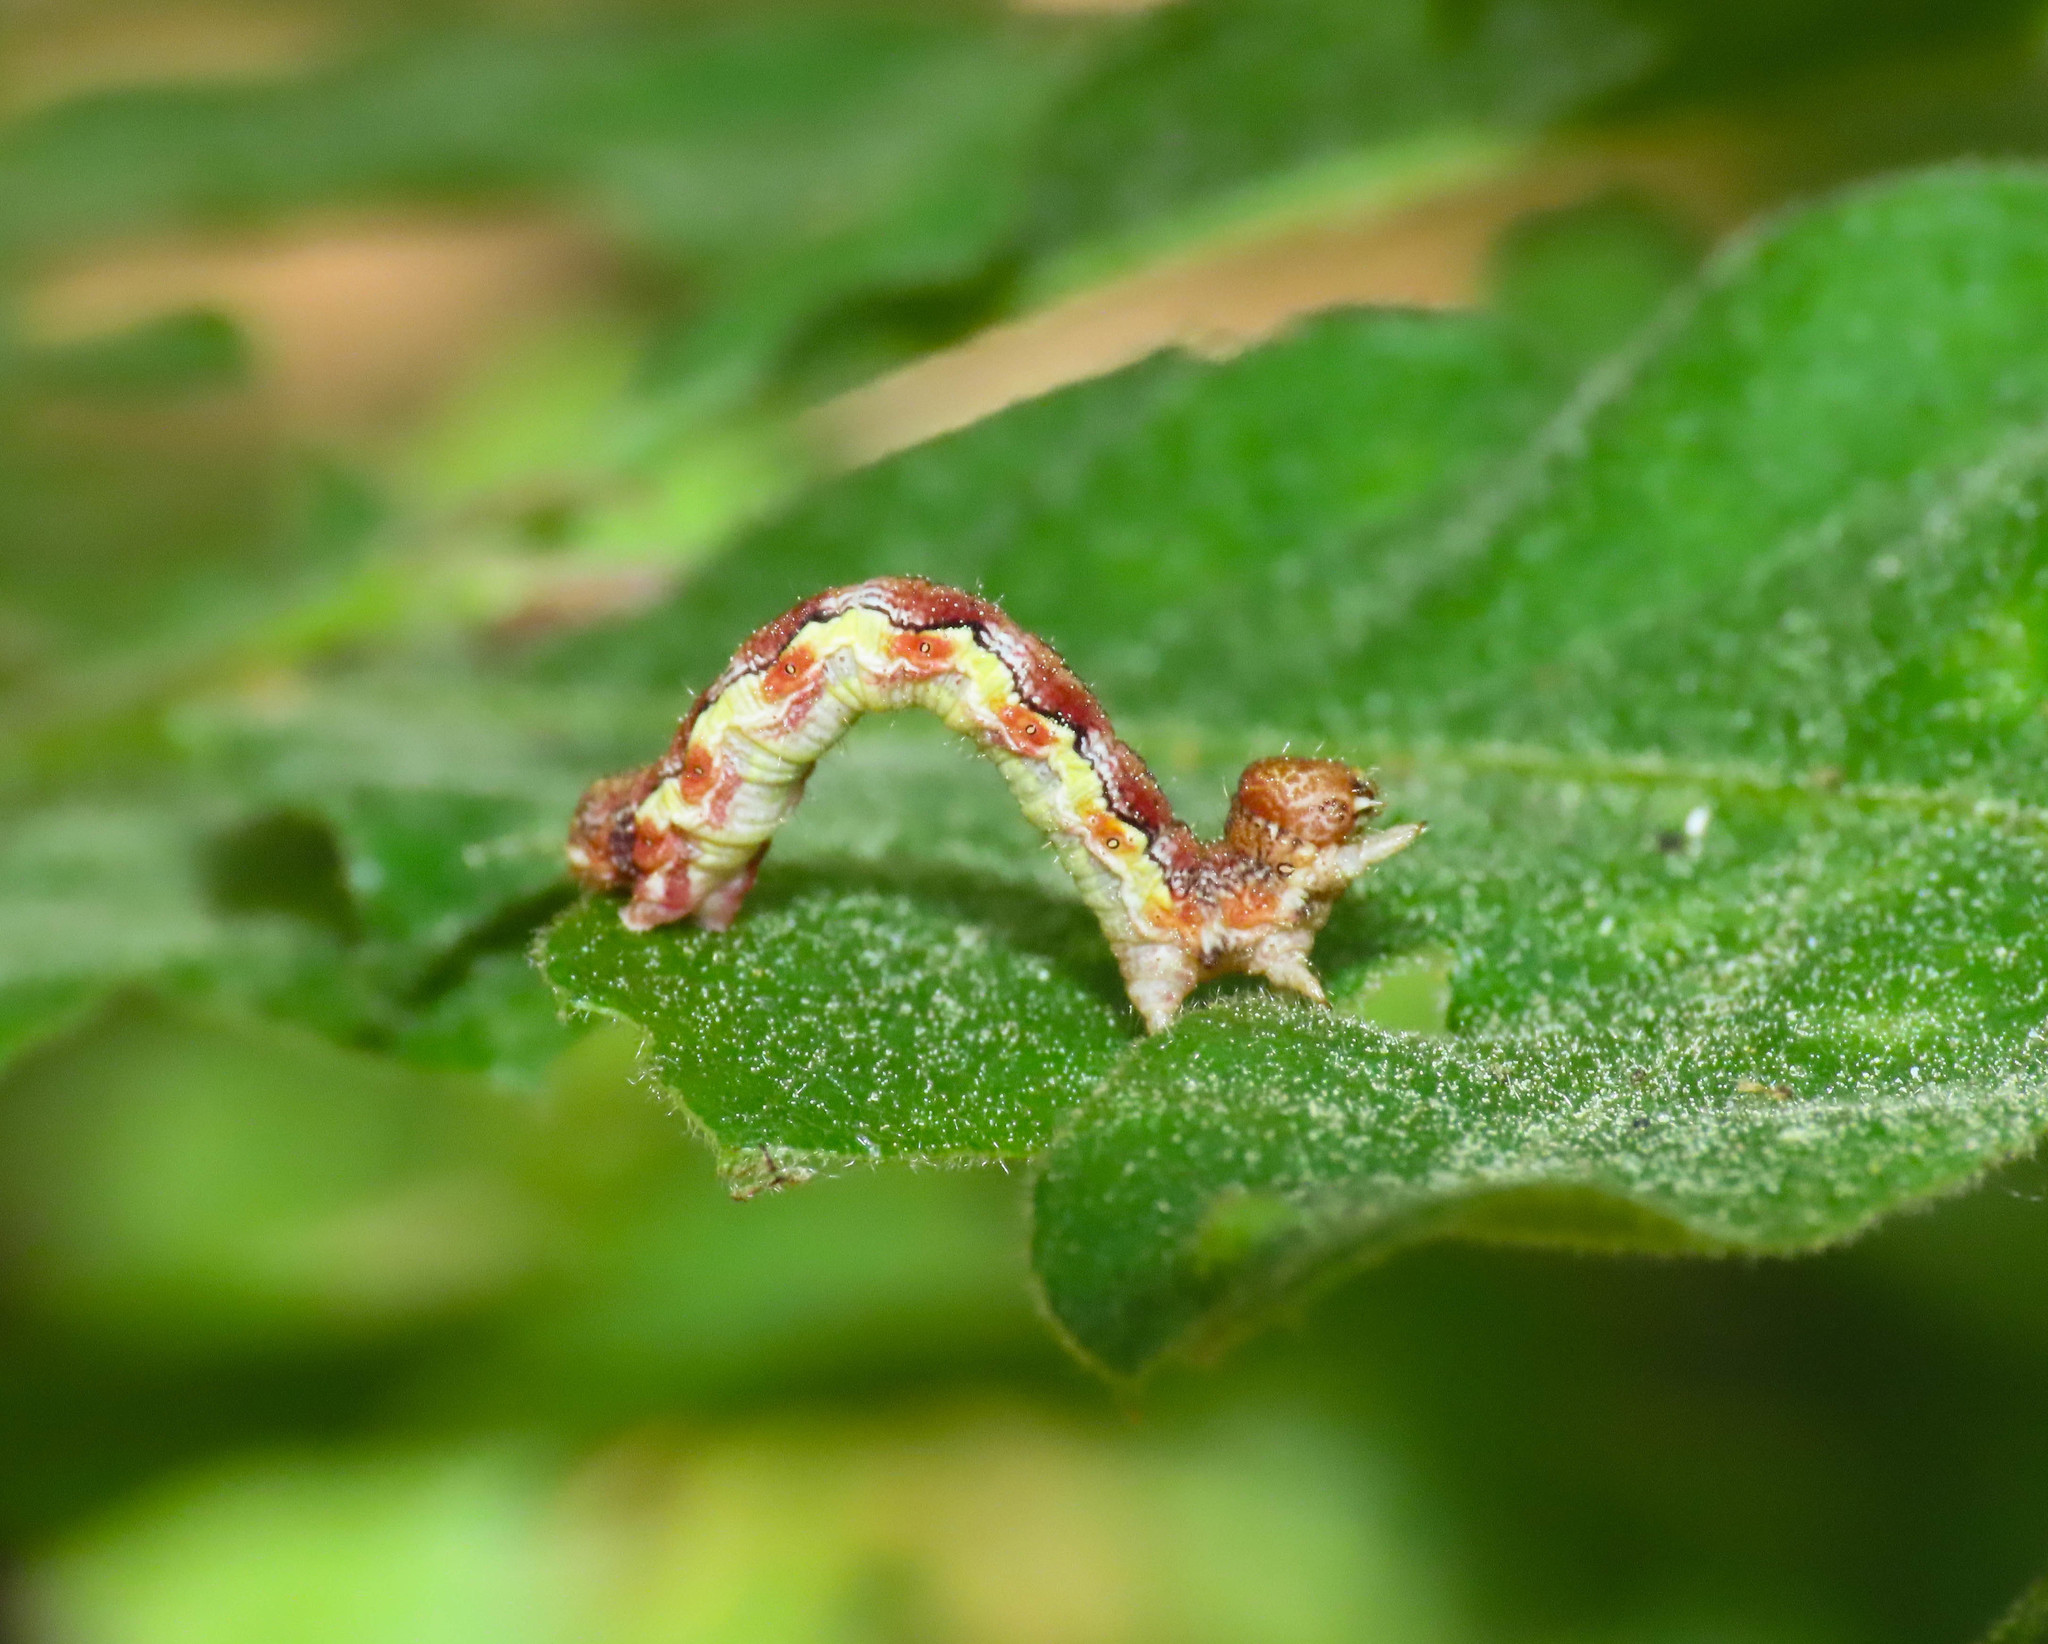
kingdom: Animalia
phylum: Arthropoda
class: Insecta
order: Lepidoptera
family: Geometridae
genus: Erannis
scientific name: Erannis defoliaria
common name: Mottled umber
